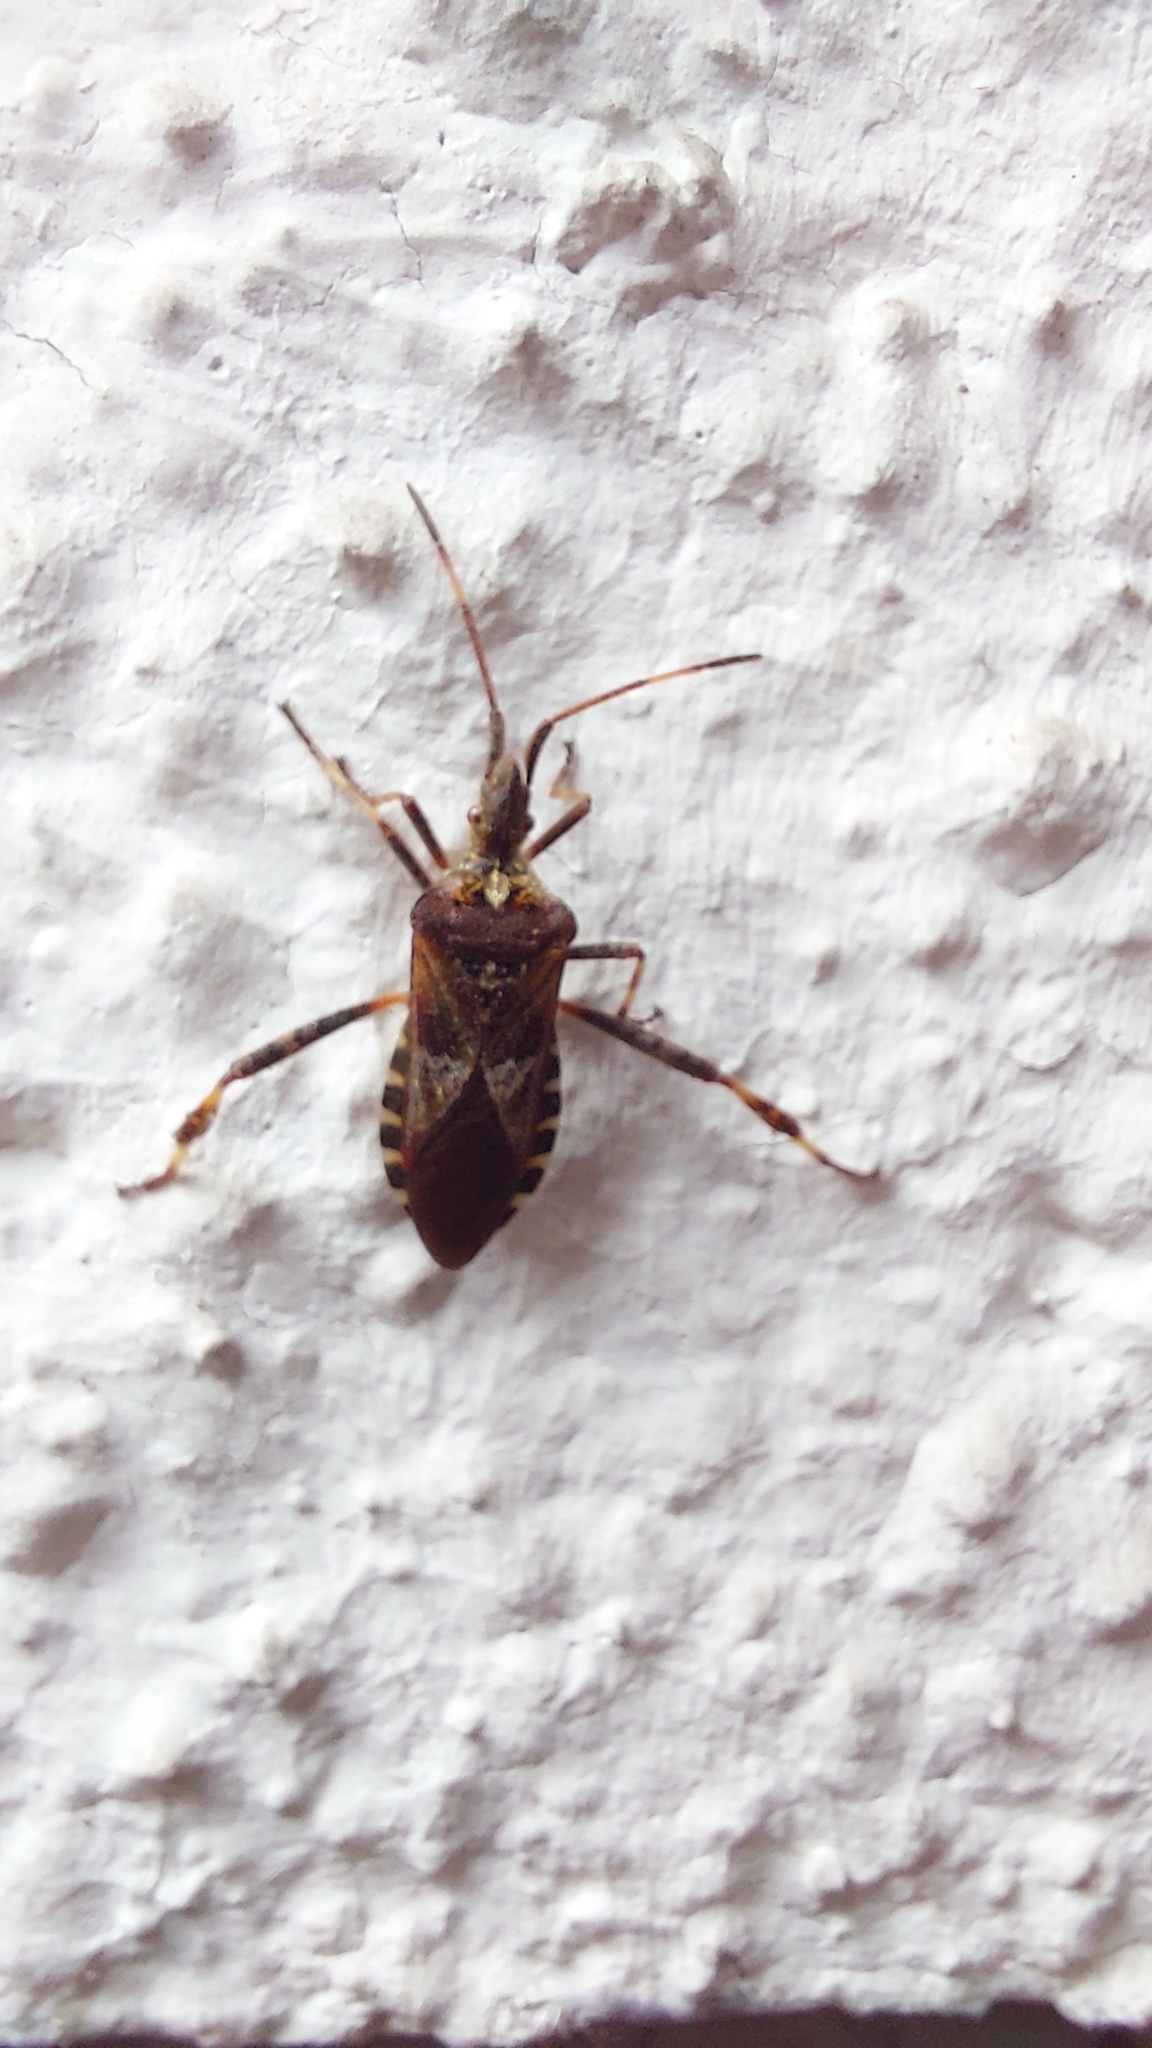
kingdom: Animalia
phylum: Arthropoda
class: Insecta
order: Hemiptera
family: Coreidae
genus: Leptoglossus
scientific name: Leptoglossus occidentalis
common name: Western conifer-seed bug
